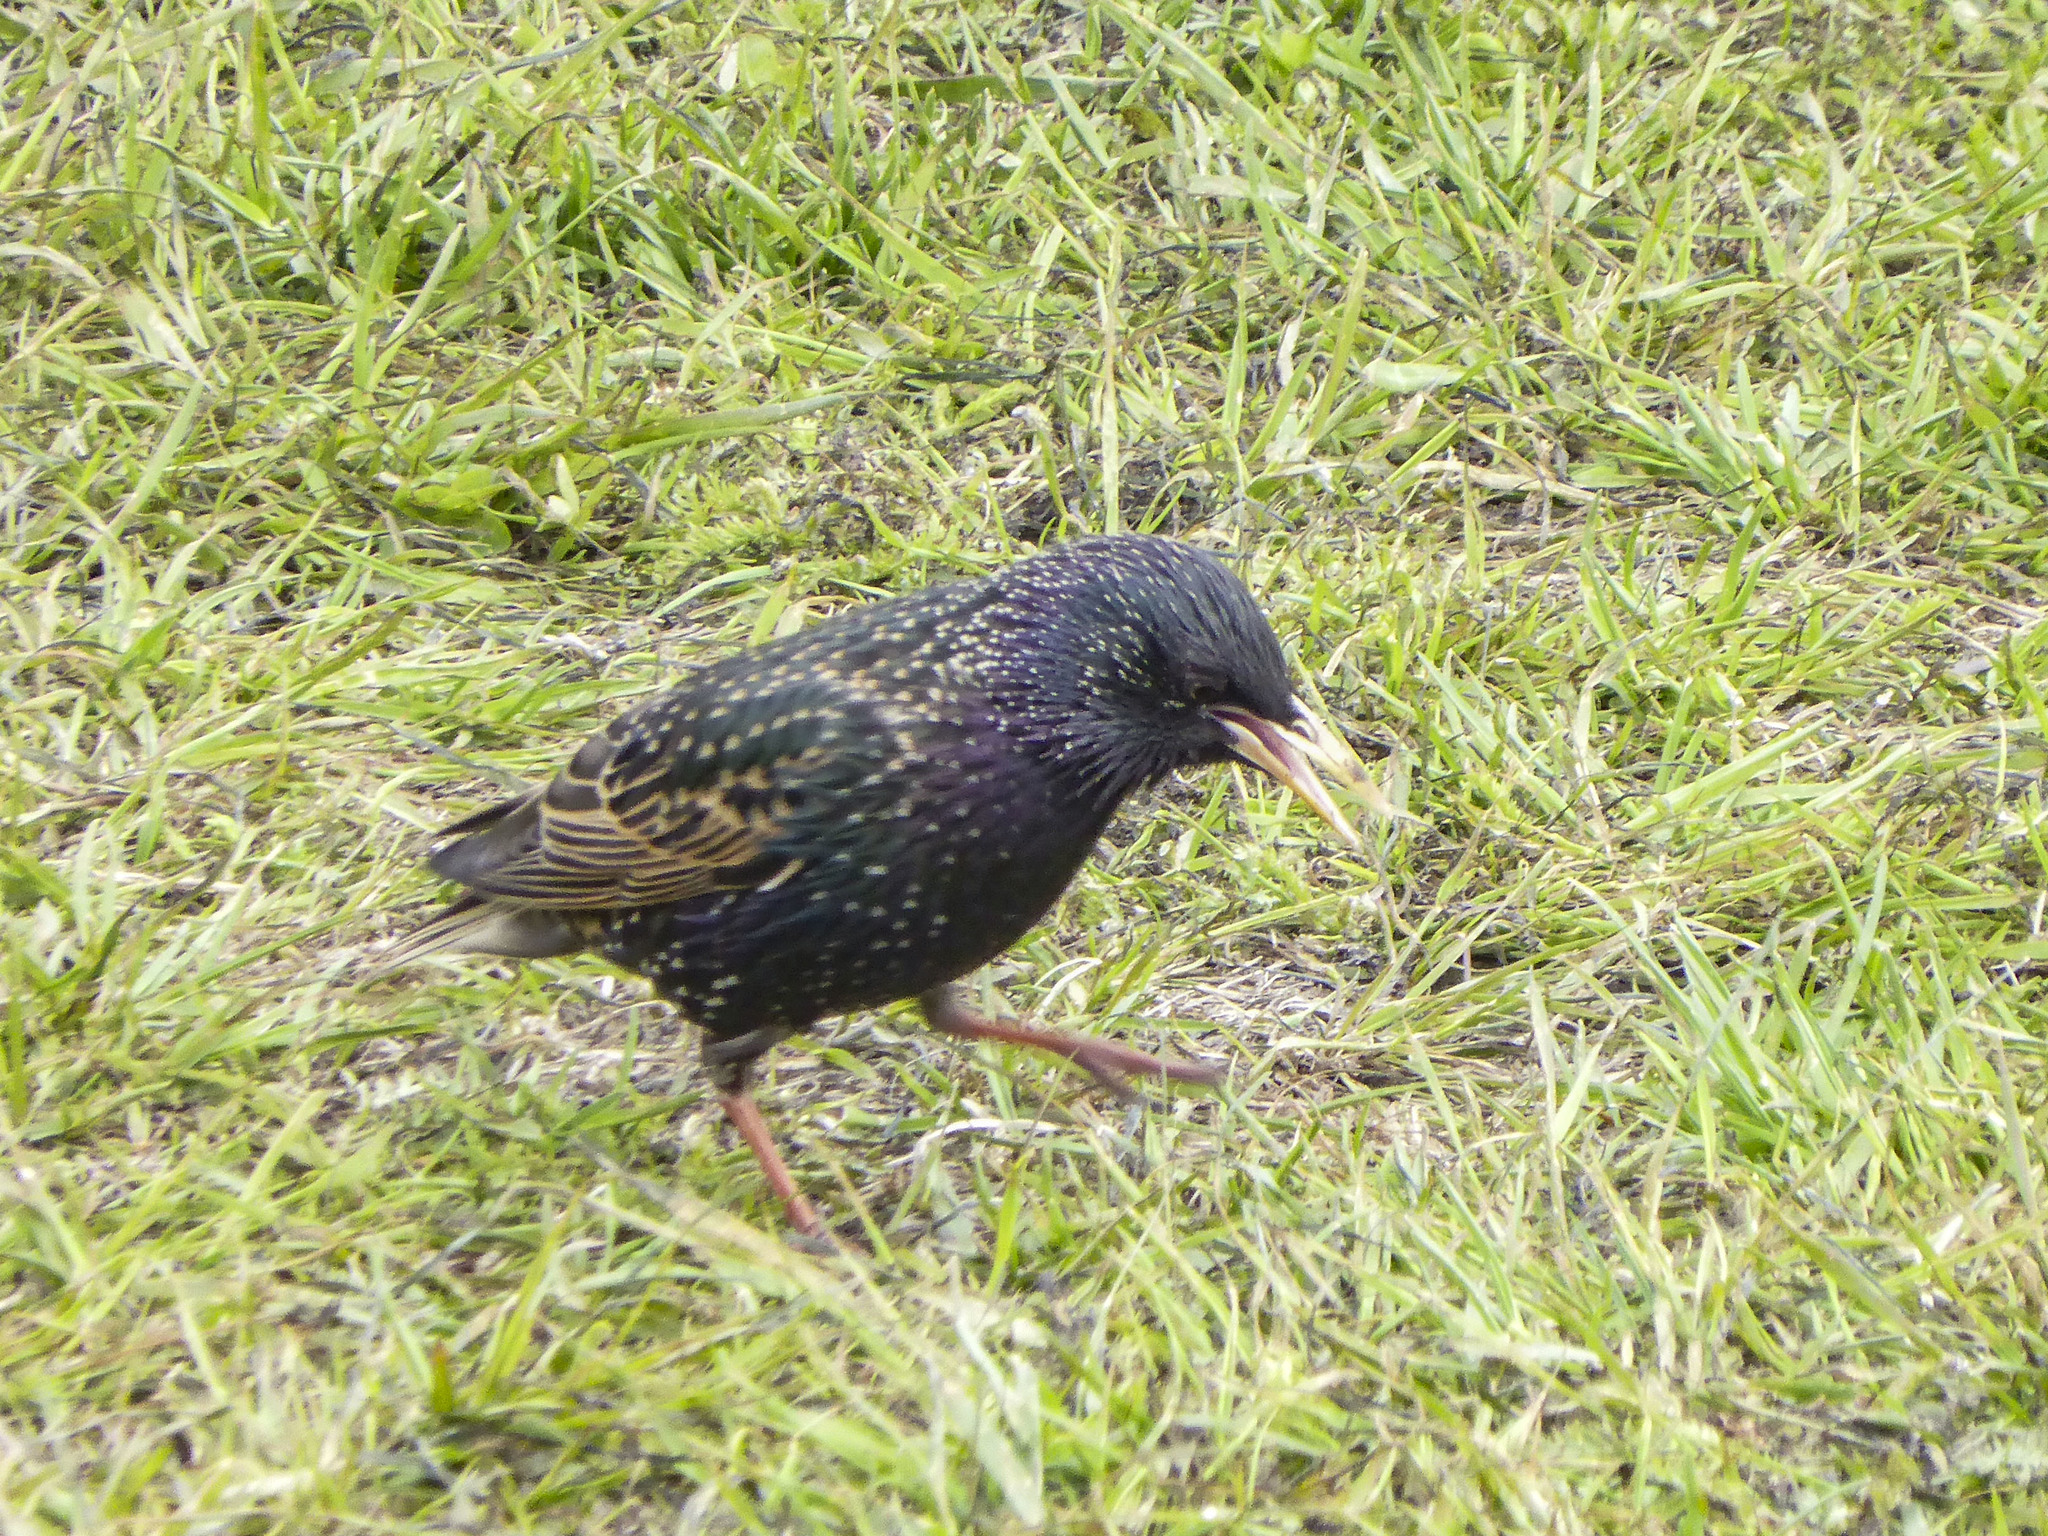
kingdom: Animalia
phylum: Chordata
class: Aves
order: Passeriformes
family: Sturnidae
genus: Sturnus
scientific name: Sturnus vulgaris
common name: Common starling
